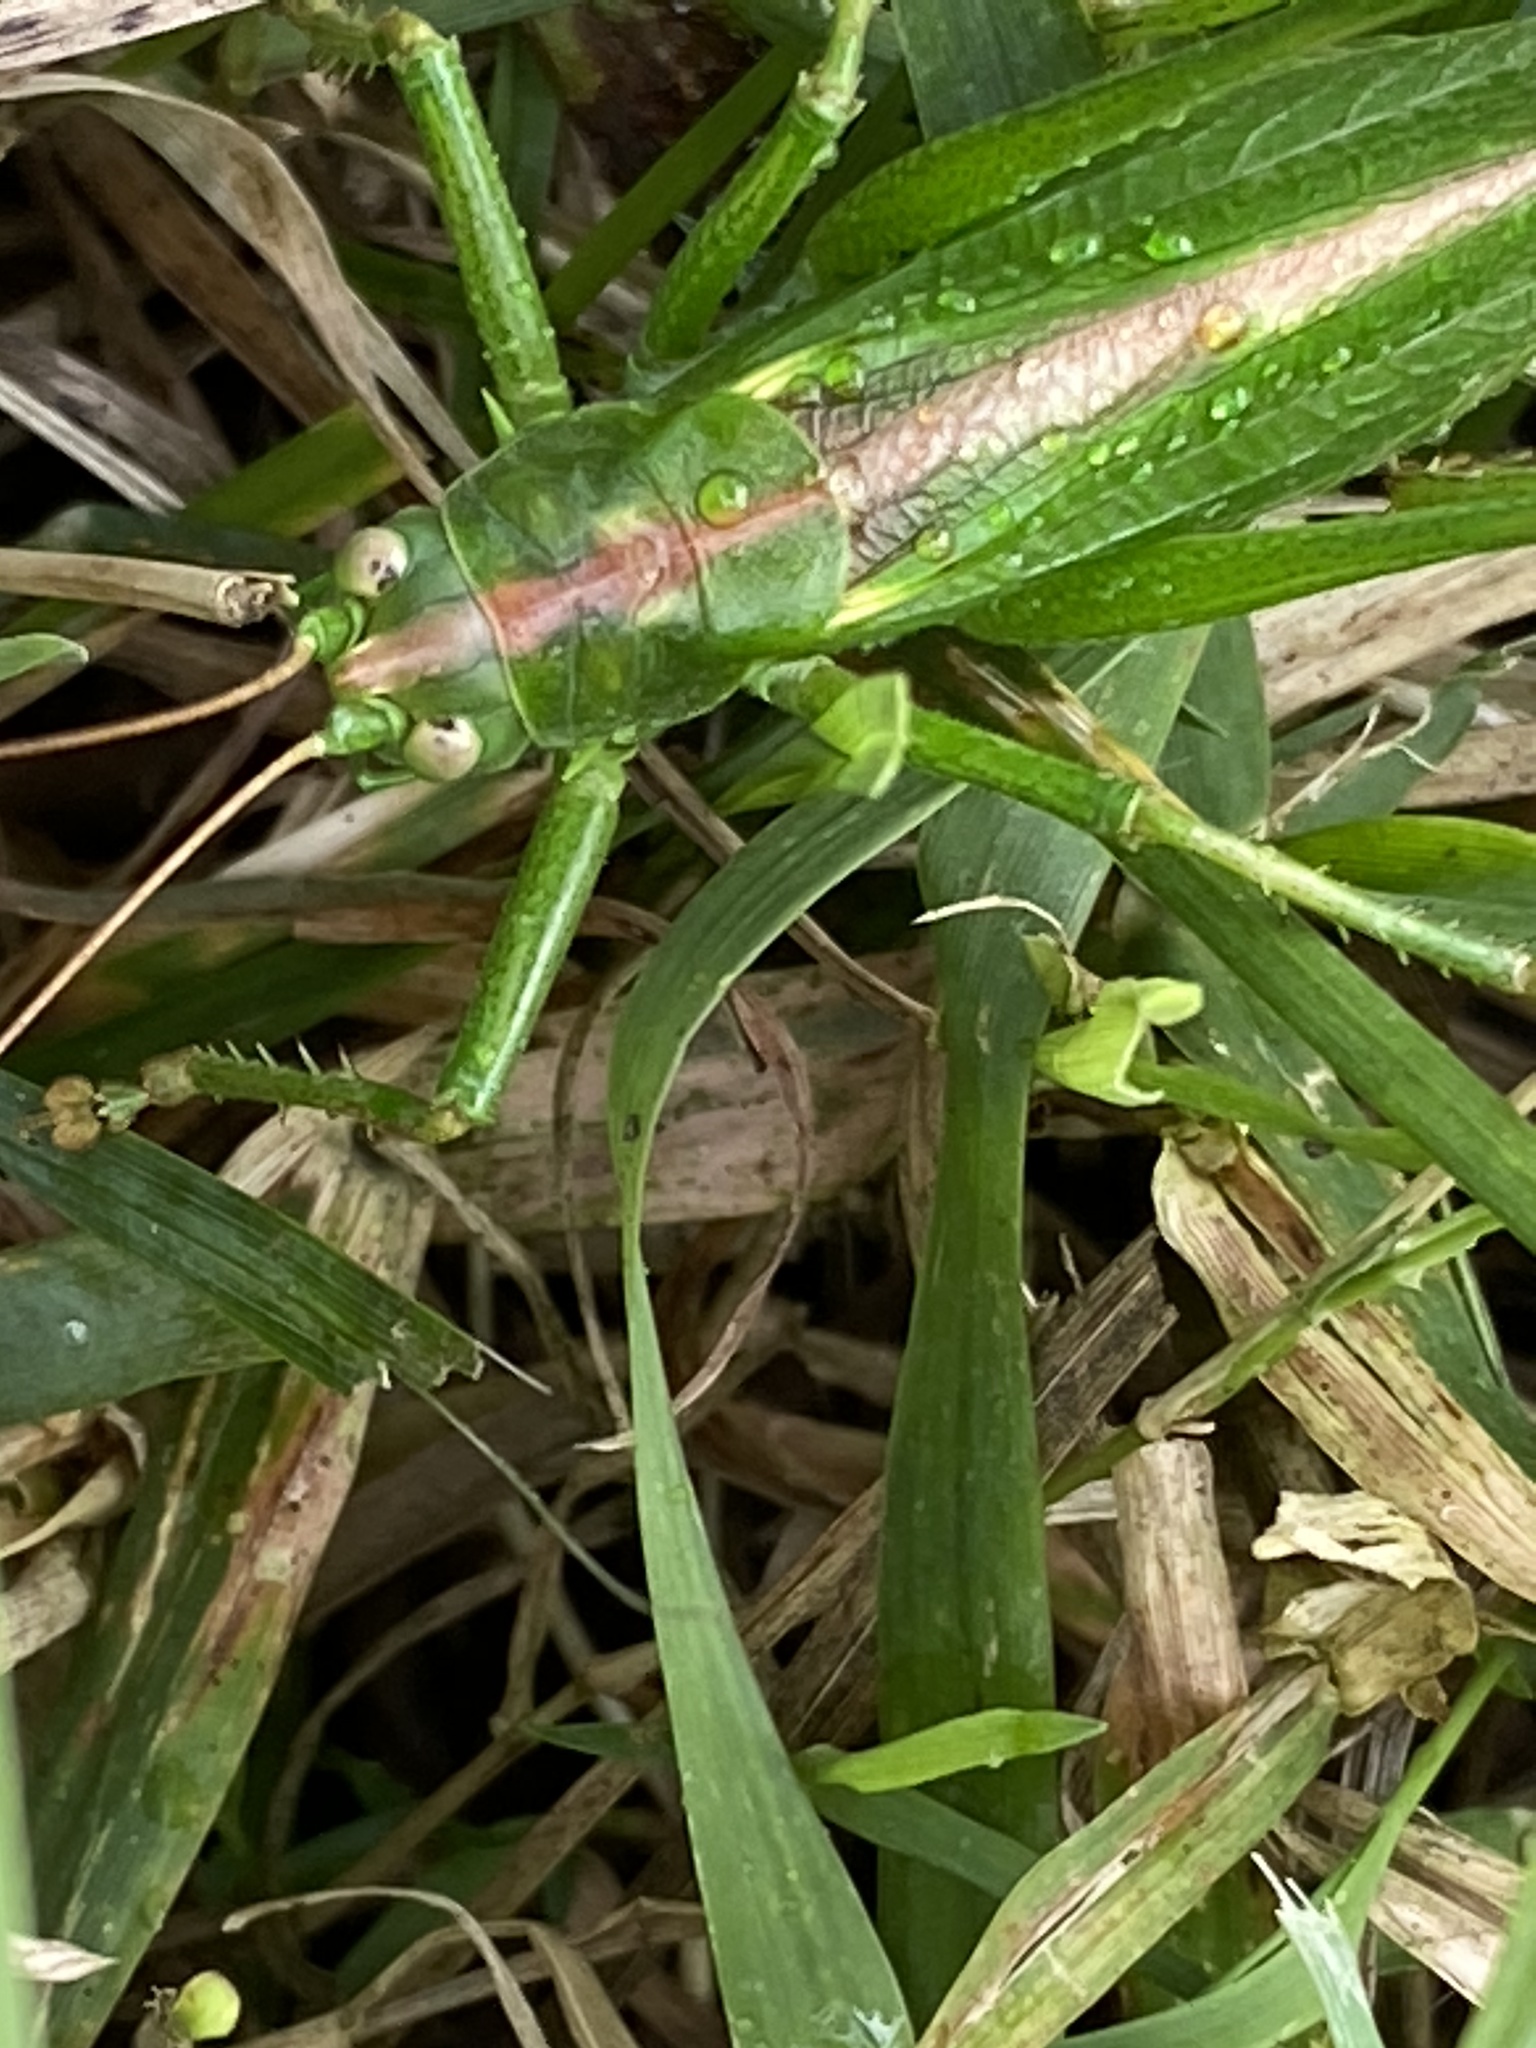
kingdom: Animalia
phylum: Arthropoda
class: Insecta
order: Orthoptera
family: Tettigoniidae
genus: Tettigonia
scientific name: Tettigonia viridissima
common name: Great green bush-cricket
